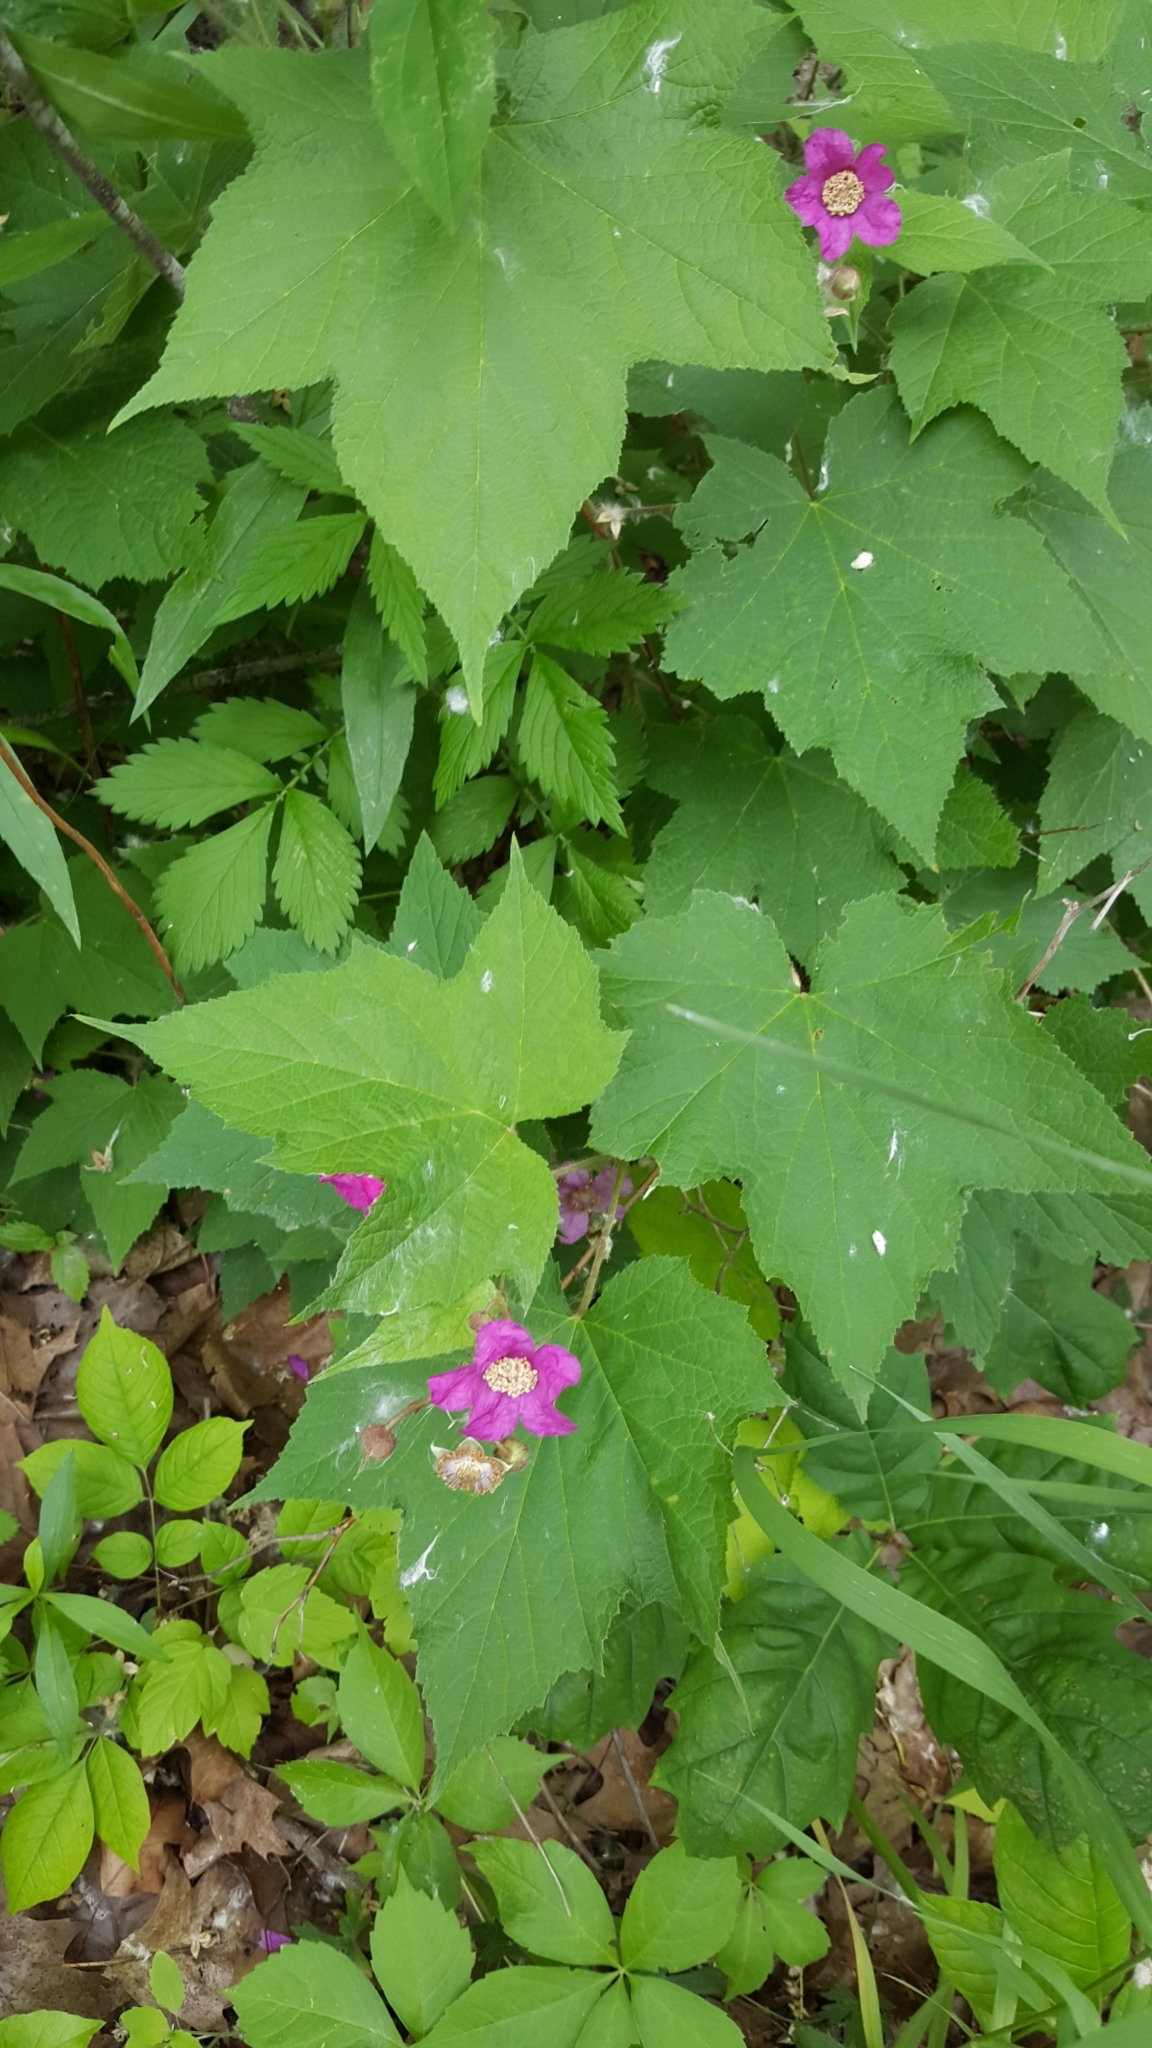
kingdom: Plantae
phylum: Tracheophyta
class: Magnoliopsida
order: Rosales
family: Rosaceae
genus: Rubus
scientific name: Rubus odoratus
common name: Purple-flowered raspberry
